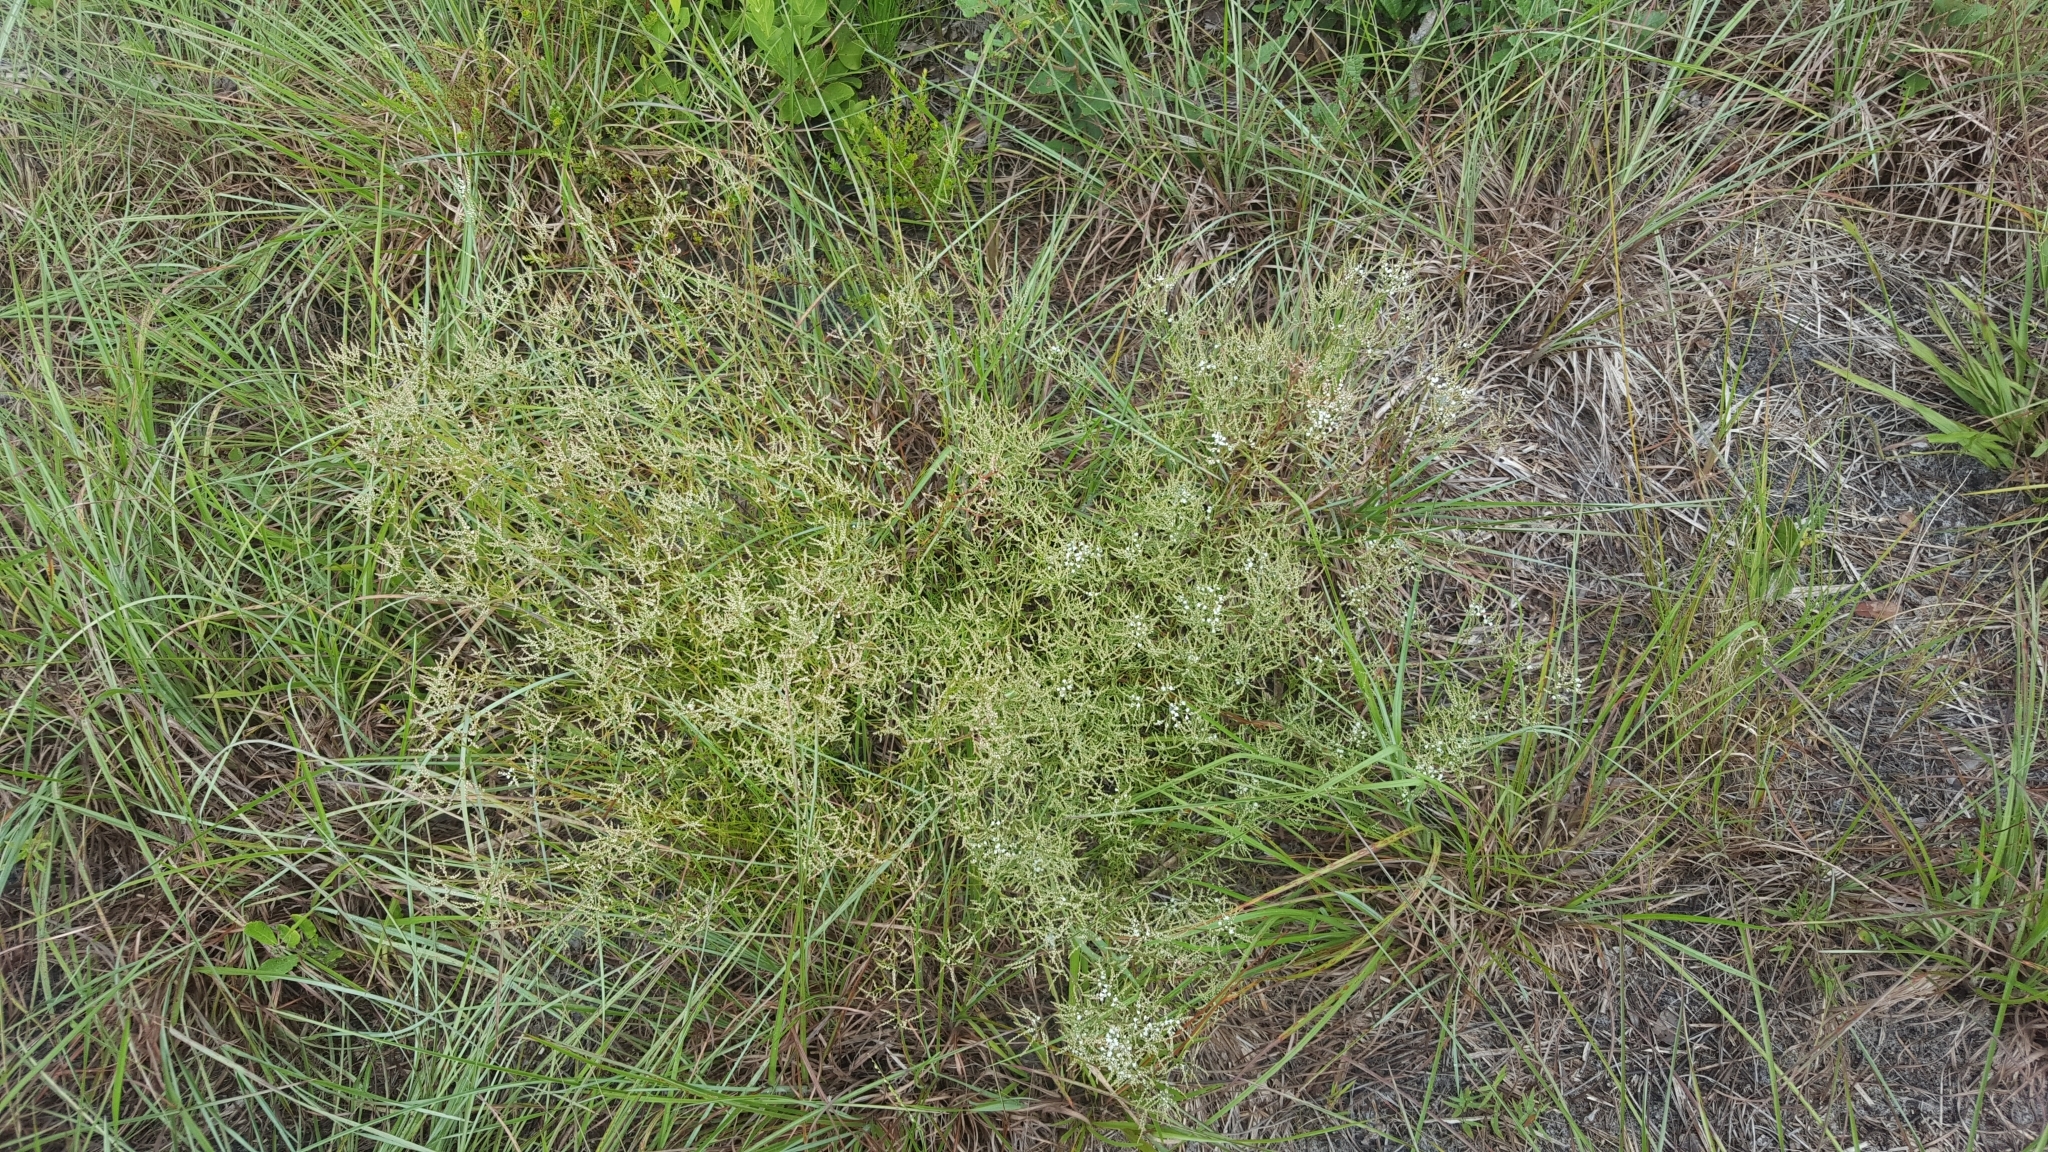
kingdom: Plantae
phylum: Tracheophyta
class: Magnoliopsida
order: Caryophyllales
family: Polygonaceae
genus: Polygonella
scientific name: Polygonella polygama
